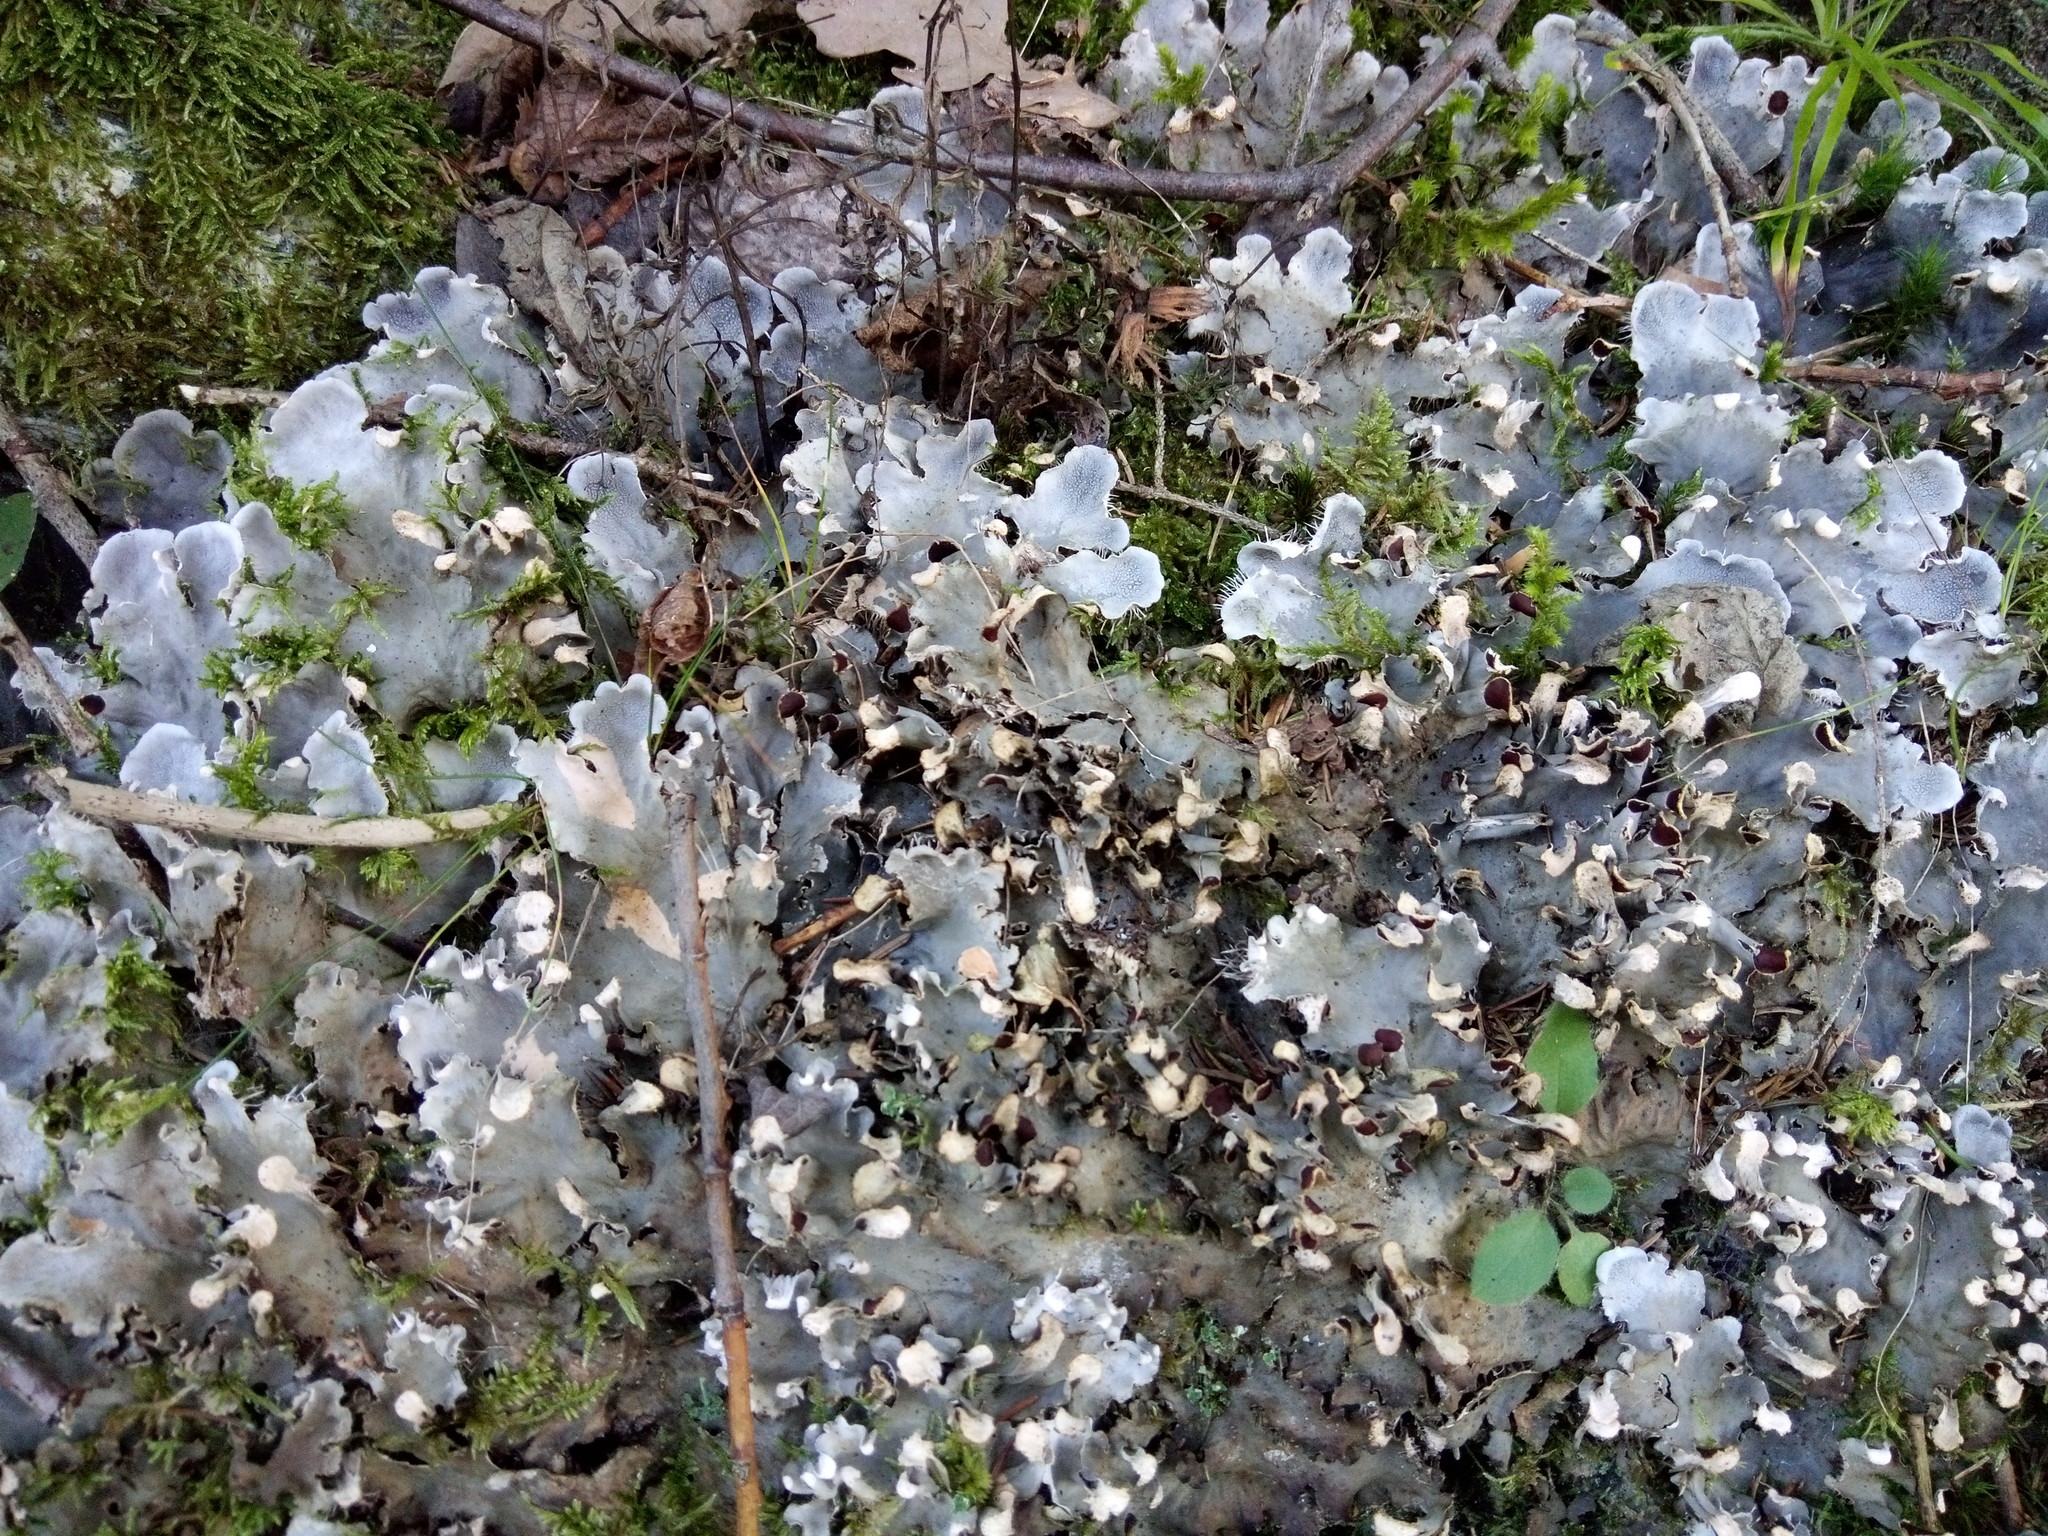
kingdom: Fungi
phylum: Ascomycota
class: Lecanoromycetes
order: Peltigerales
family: Peltigeraceae
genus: Peltigera
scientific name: Peltigera praetextata
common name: Scaly dog-lichen
